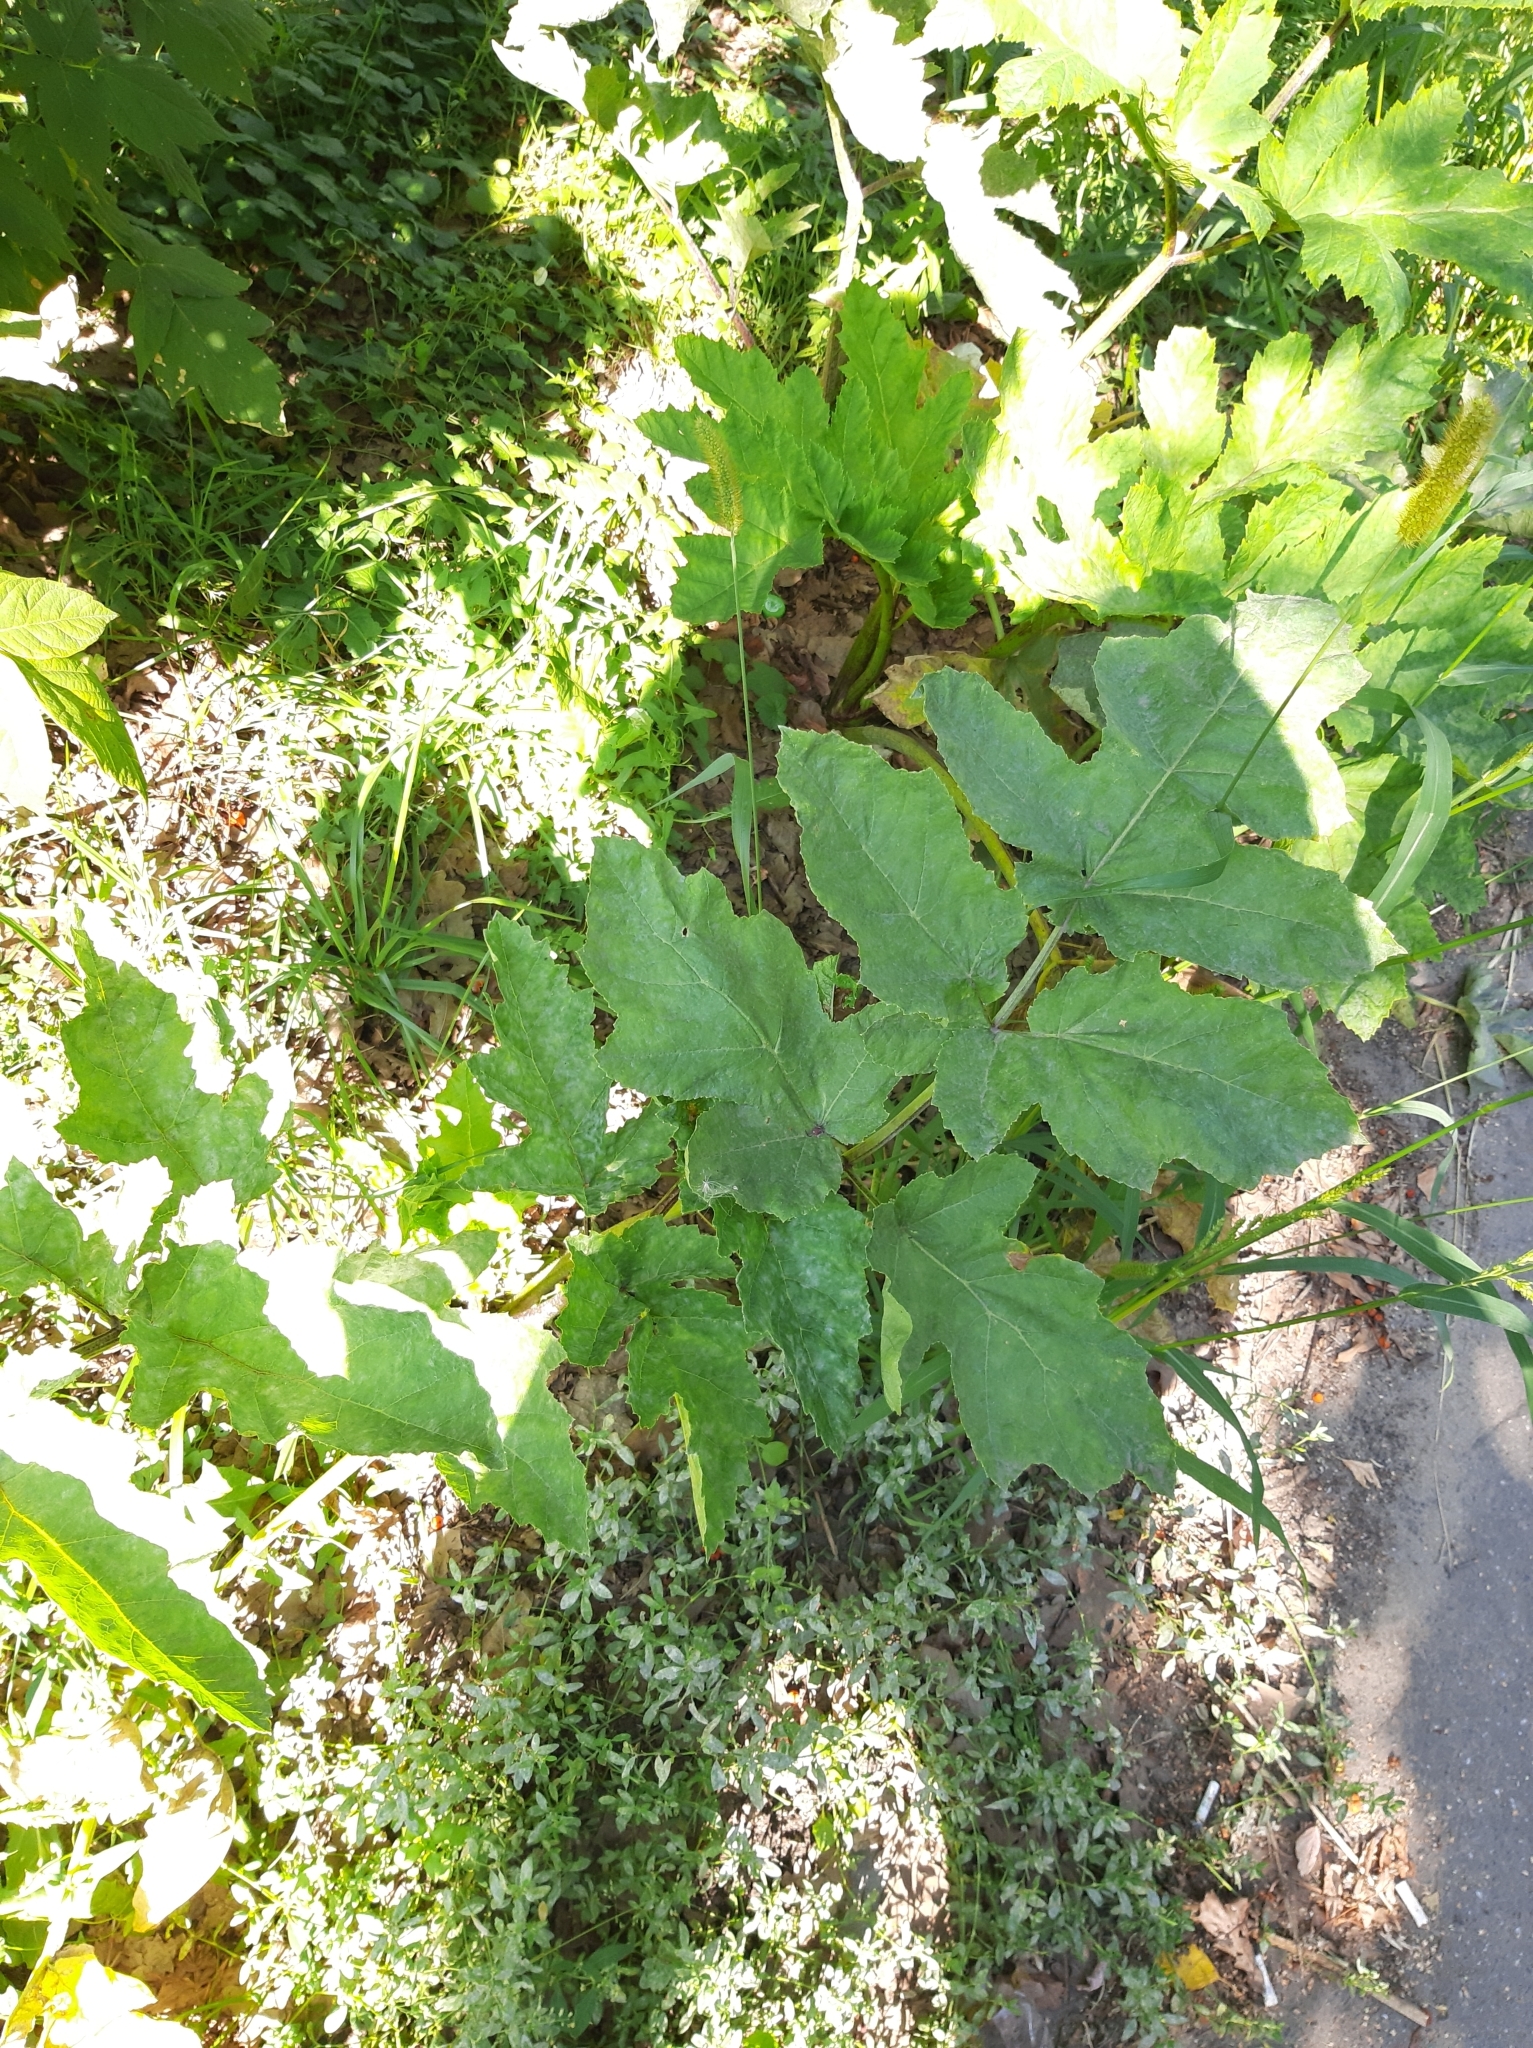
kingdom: Plantae
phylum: Tracheophyta
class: Magnoliopsida
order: Apiales
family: Apiaceae
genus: Heracleum
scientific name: Heracleum sosnowskyi
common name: Sosnowsky's hogweed
